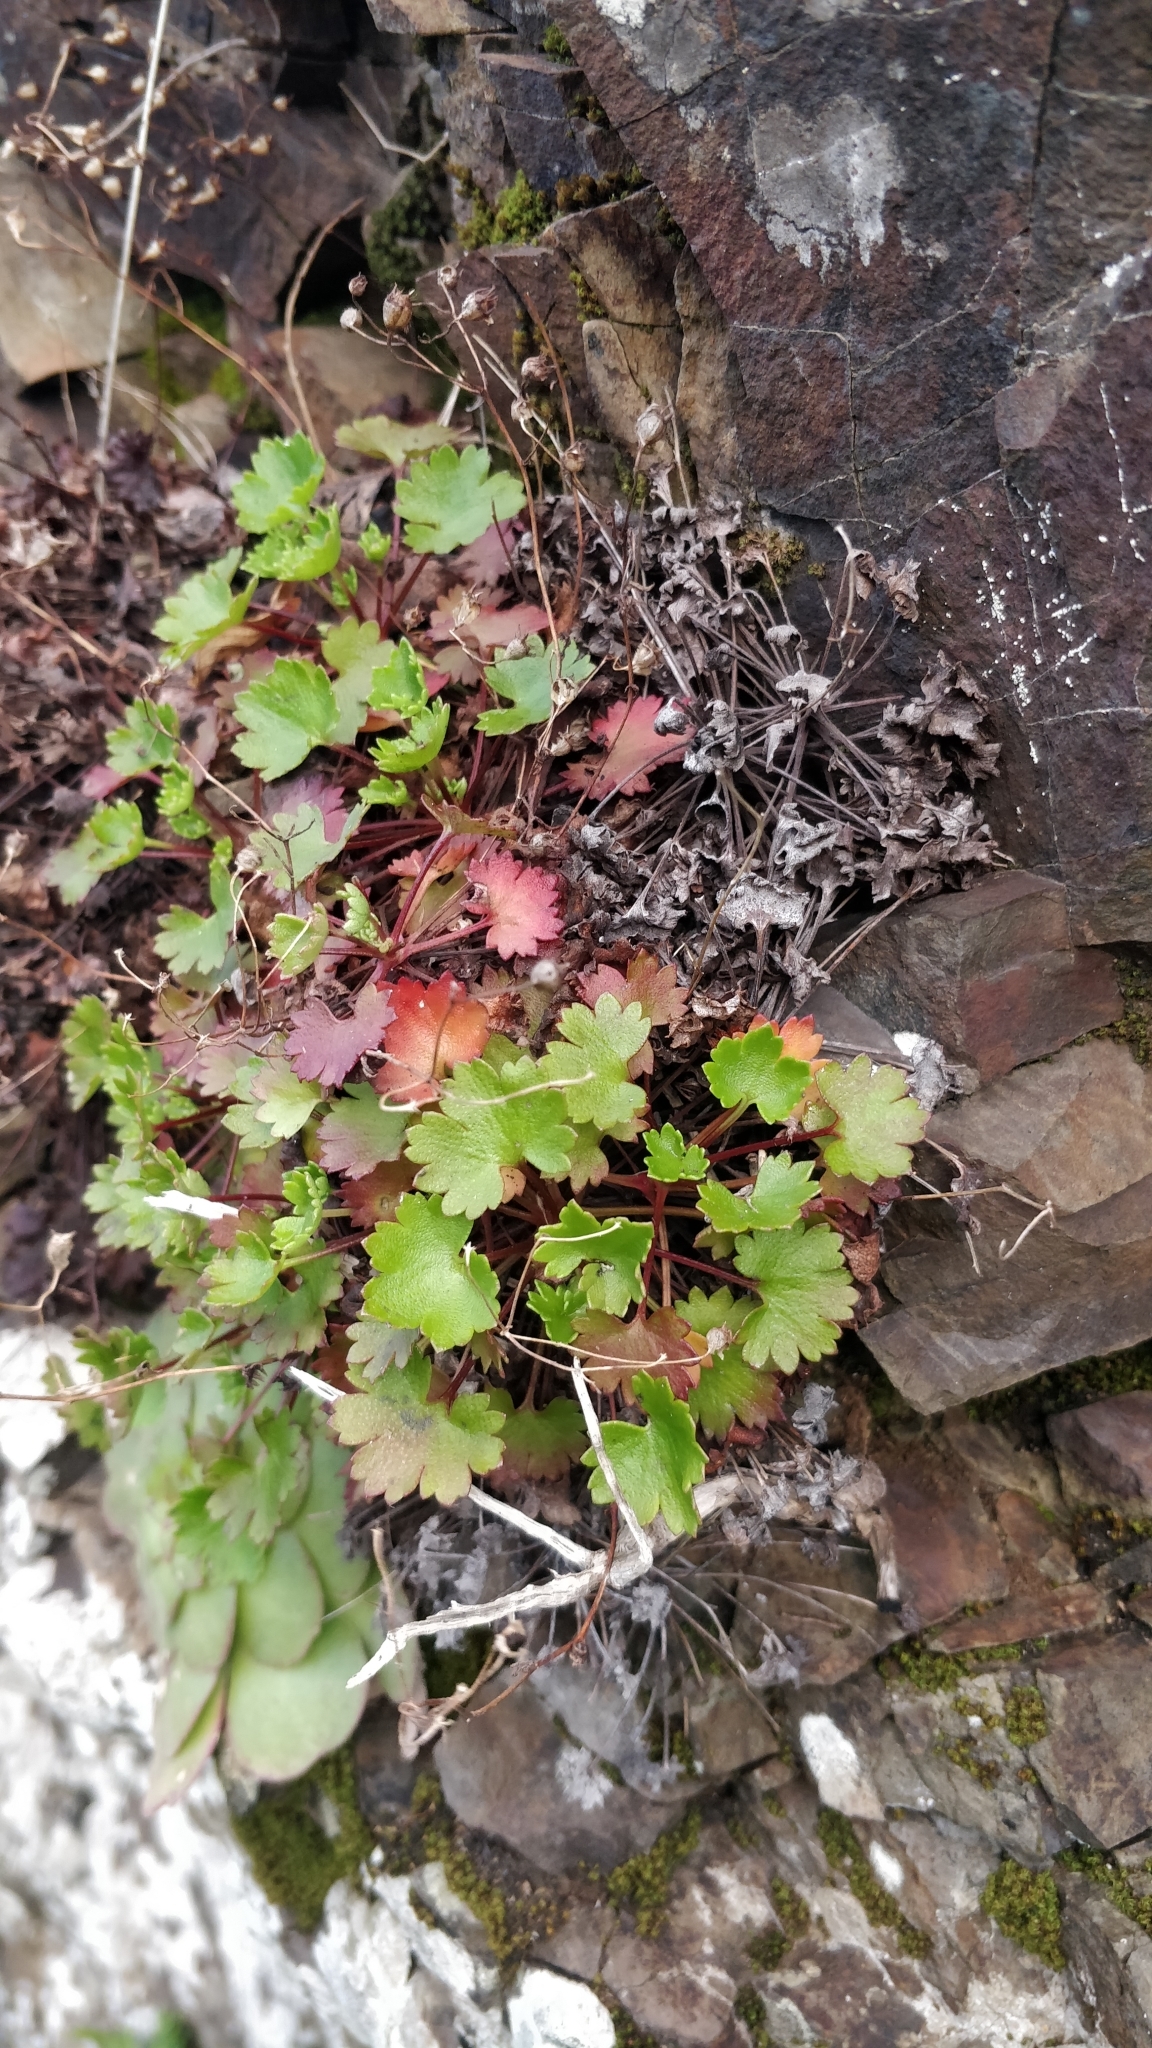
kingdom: Plantae
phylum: Tracheophyta
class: Magnoliopsida
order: Saxifragales
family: Saxifragaceae
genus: Saxifraga
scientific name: Saxifraga maderensis
